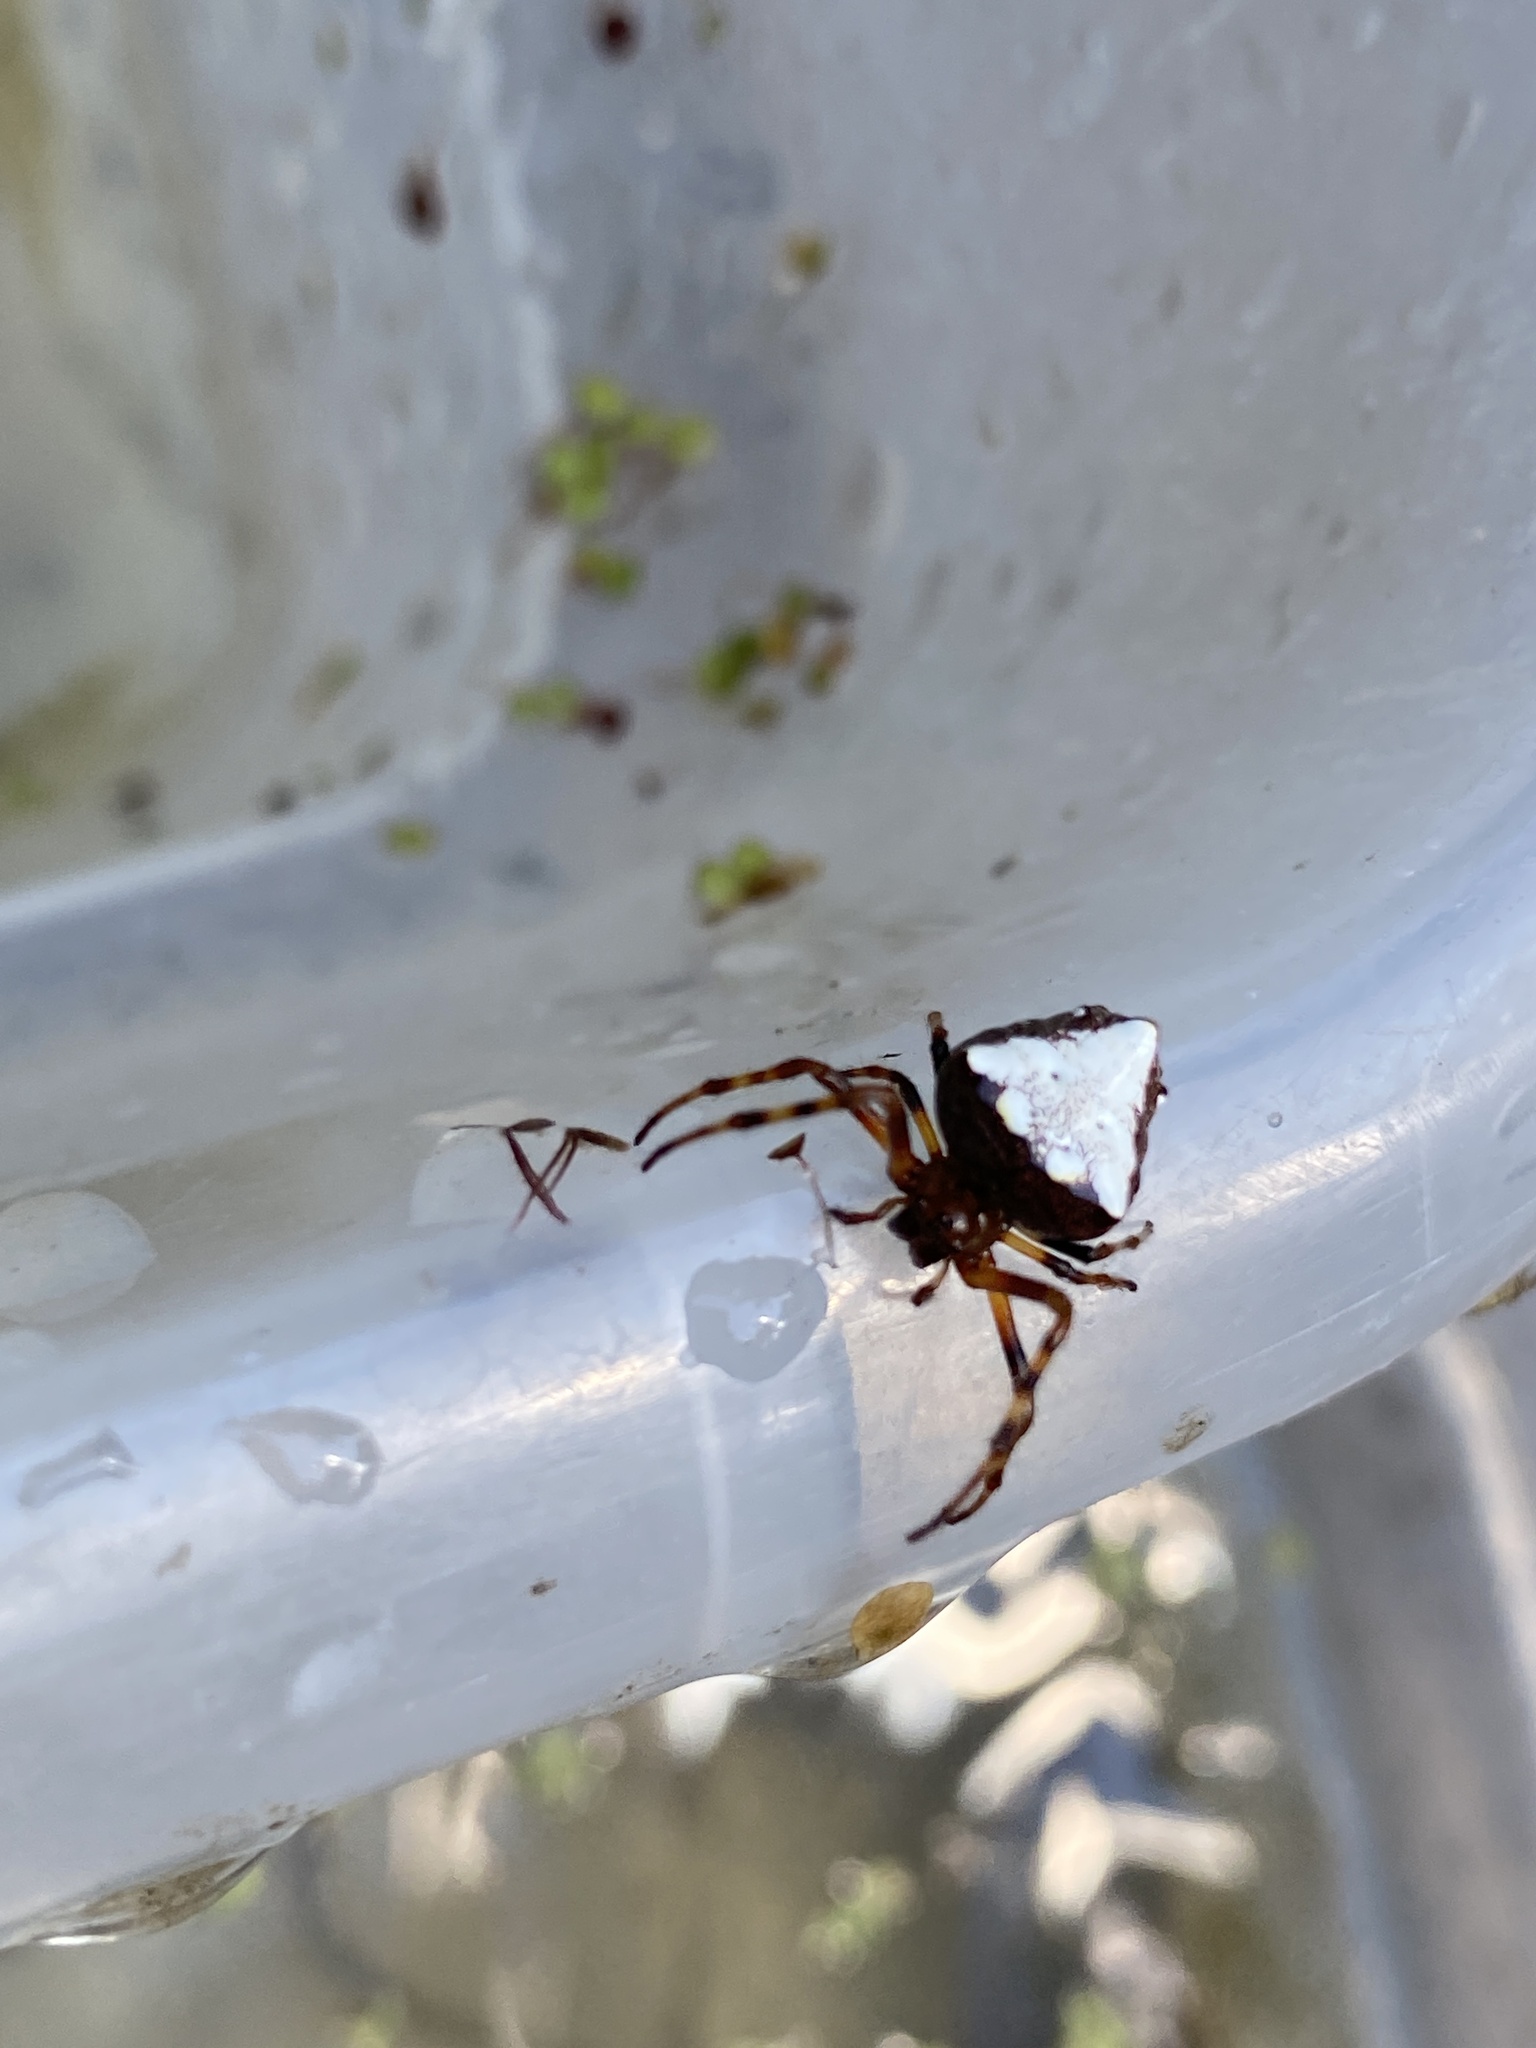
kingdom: Animalia
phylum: Arthropoda
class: Arachnida
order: Araneae
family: Araneidae
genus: Verrucosa
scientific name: Verrucosa arenata
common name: Orb weavers
